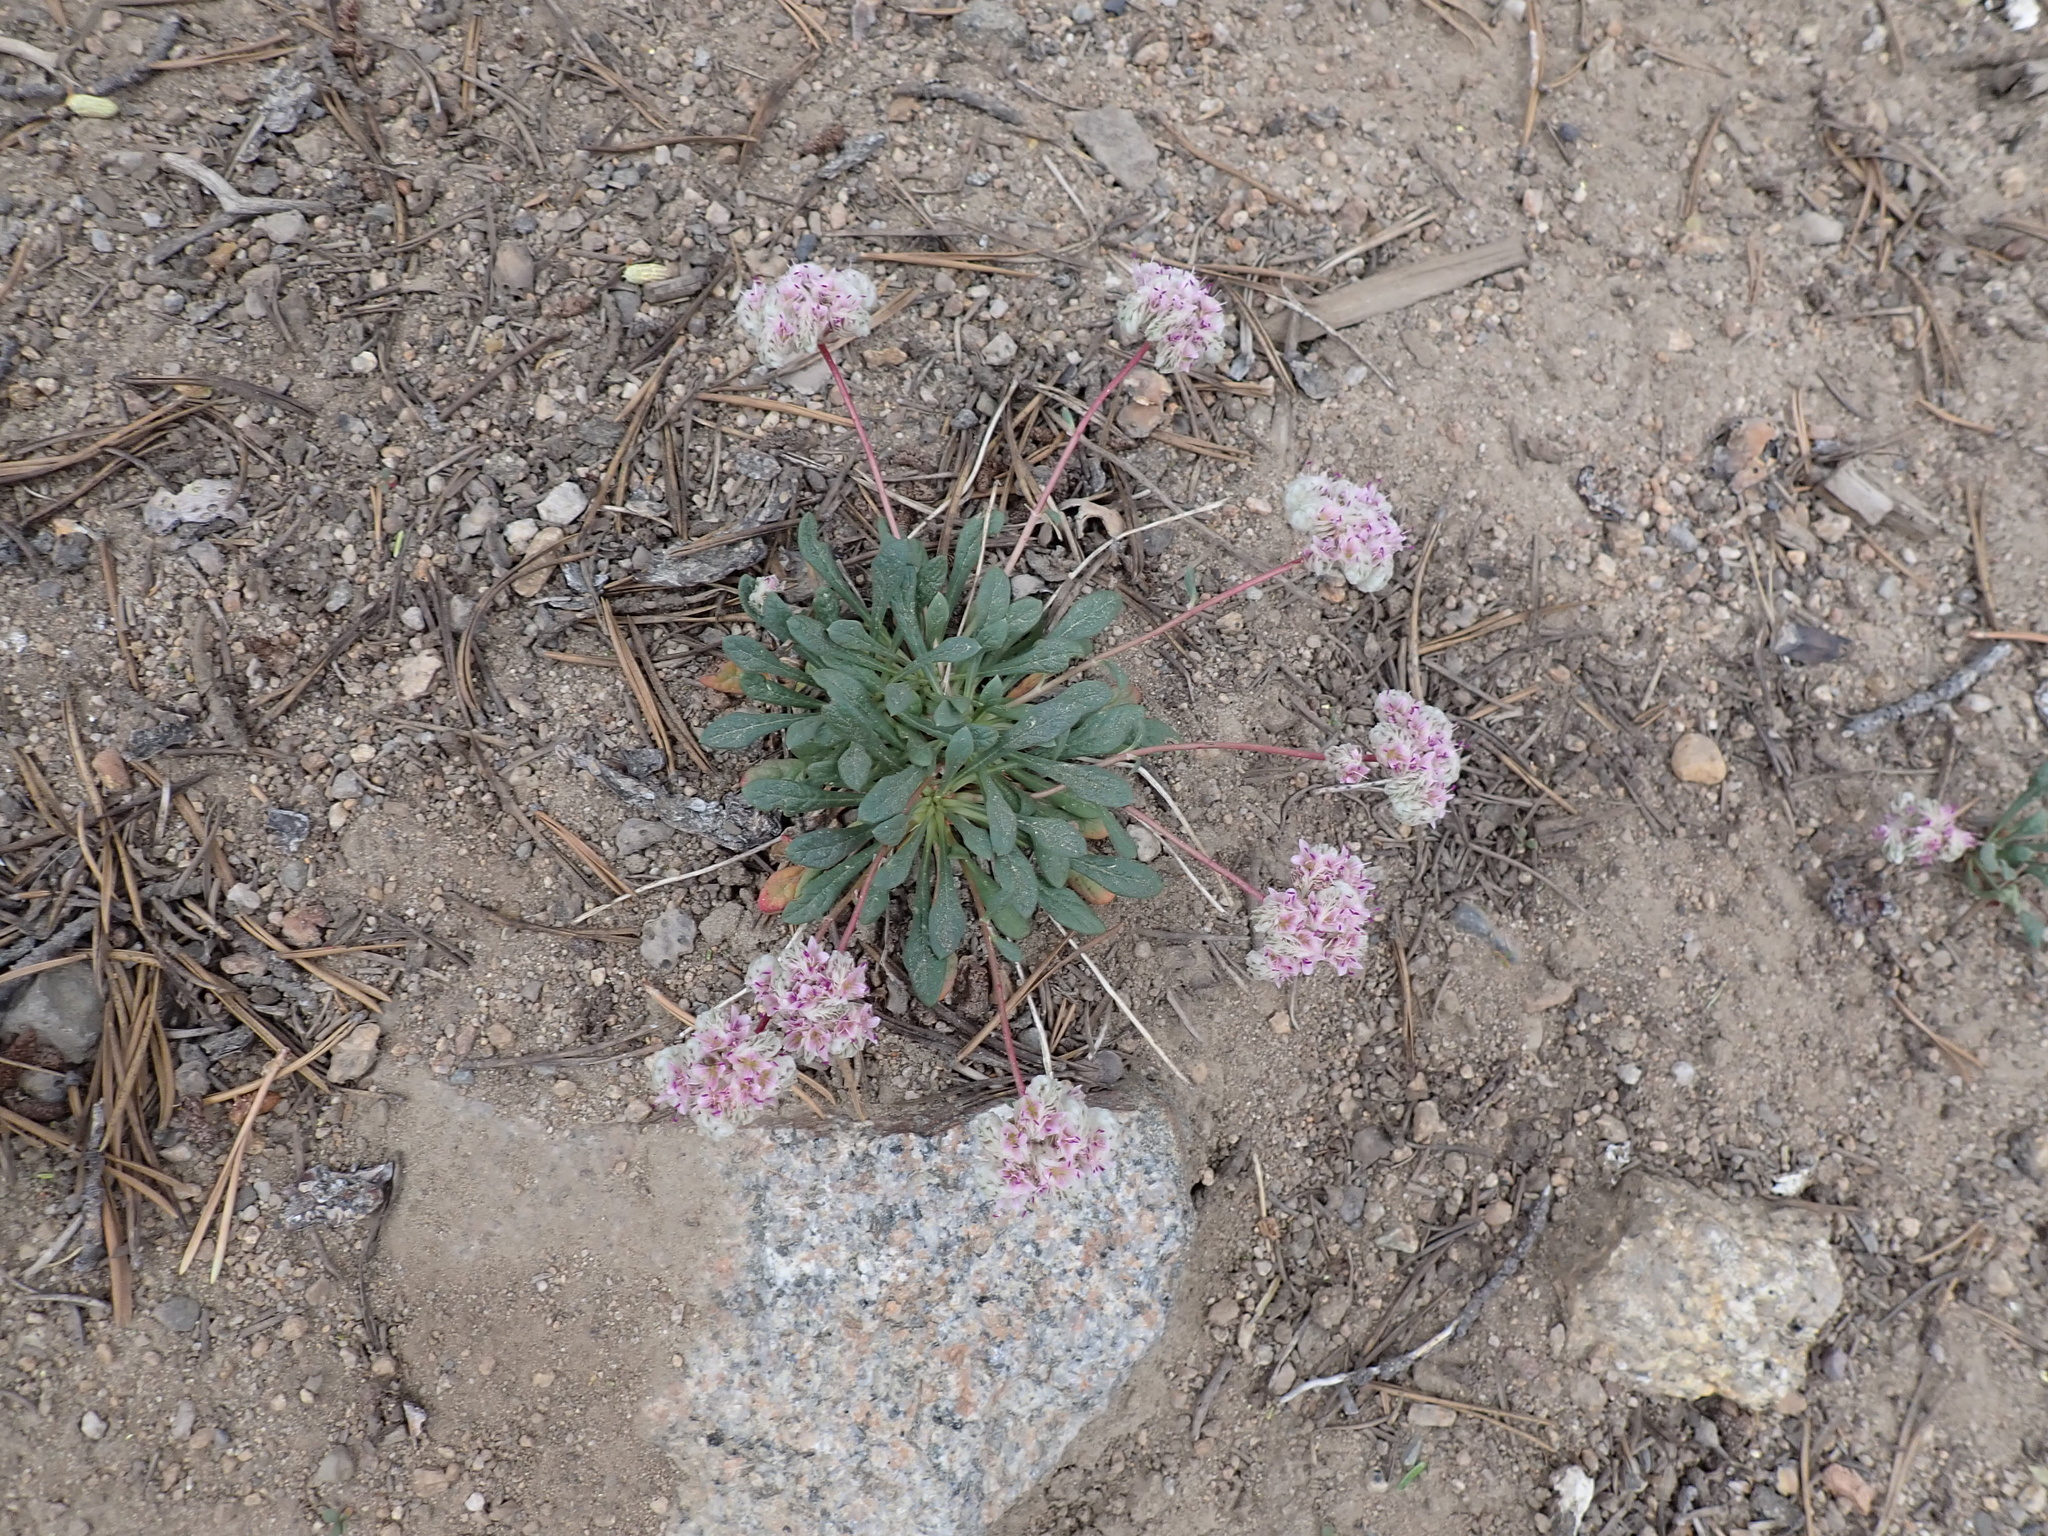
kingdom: Plantae
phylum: Tracheophyta
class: Magnoliopsida
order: Caryophyllales
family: Montiaceae
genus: Calyptridium
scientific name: Calyptridium monospermum
